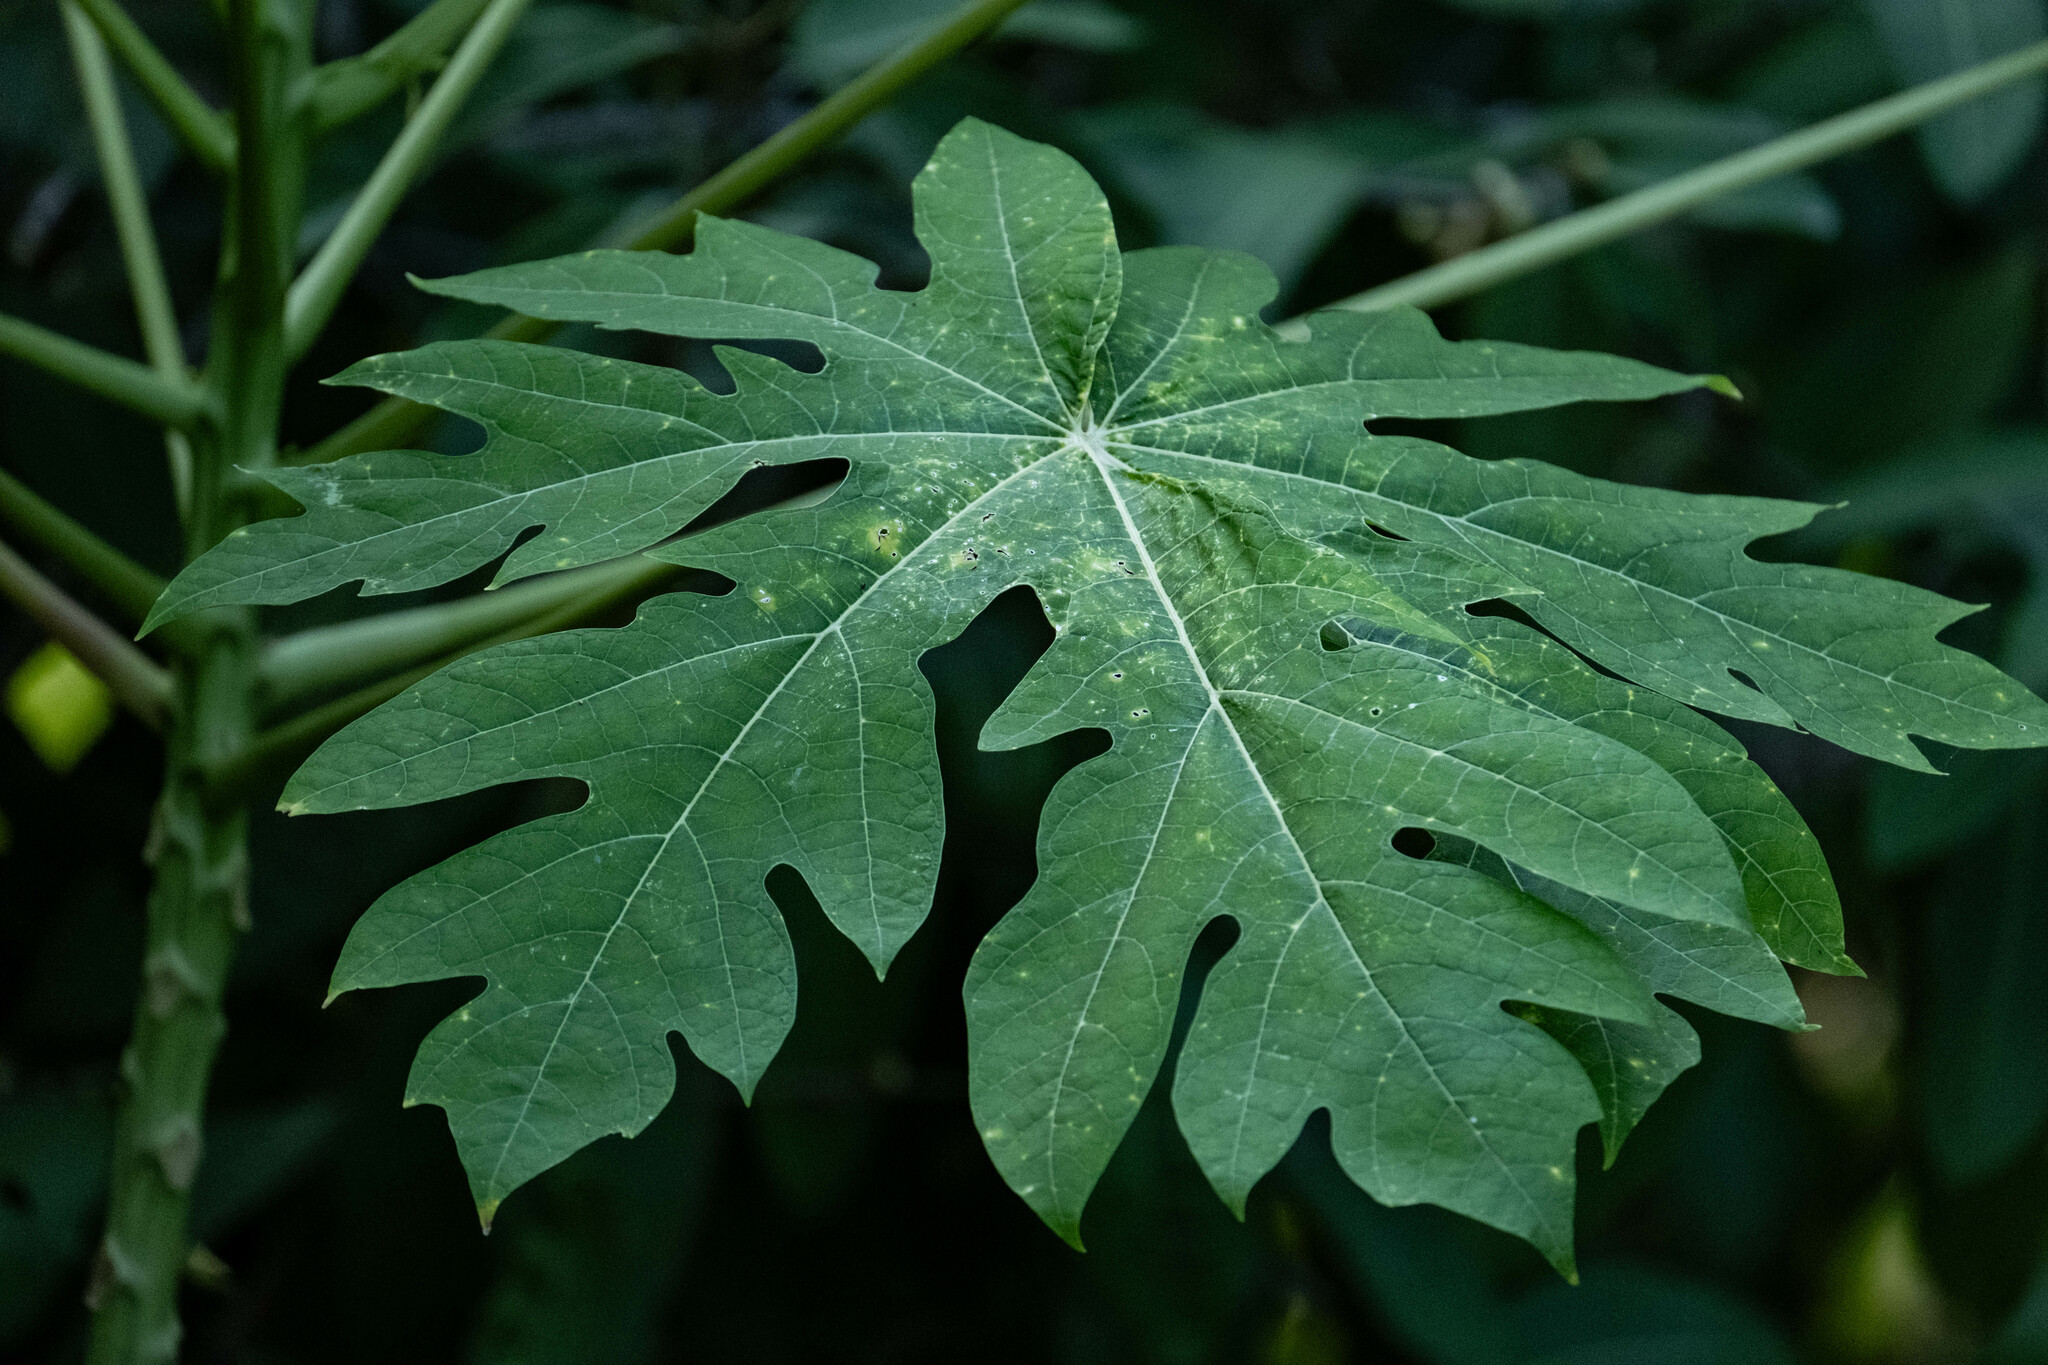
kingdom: Plantae
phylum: Tracheophyta
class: Magnoliopsida
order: Brassicales
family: Caricaceae
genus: Carica
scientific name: Carica papaya
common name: Papaya
